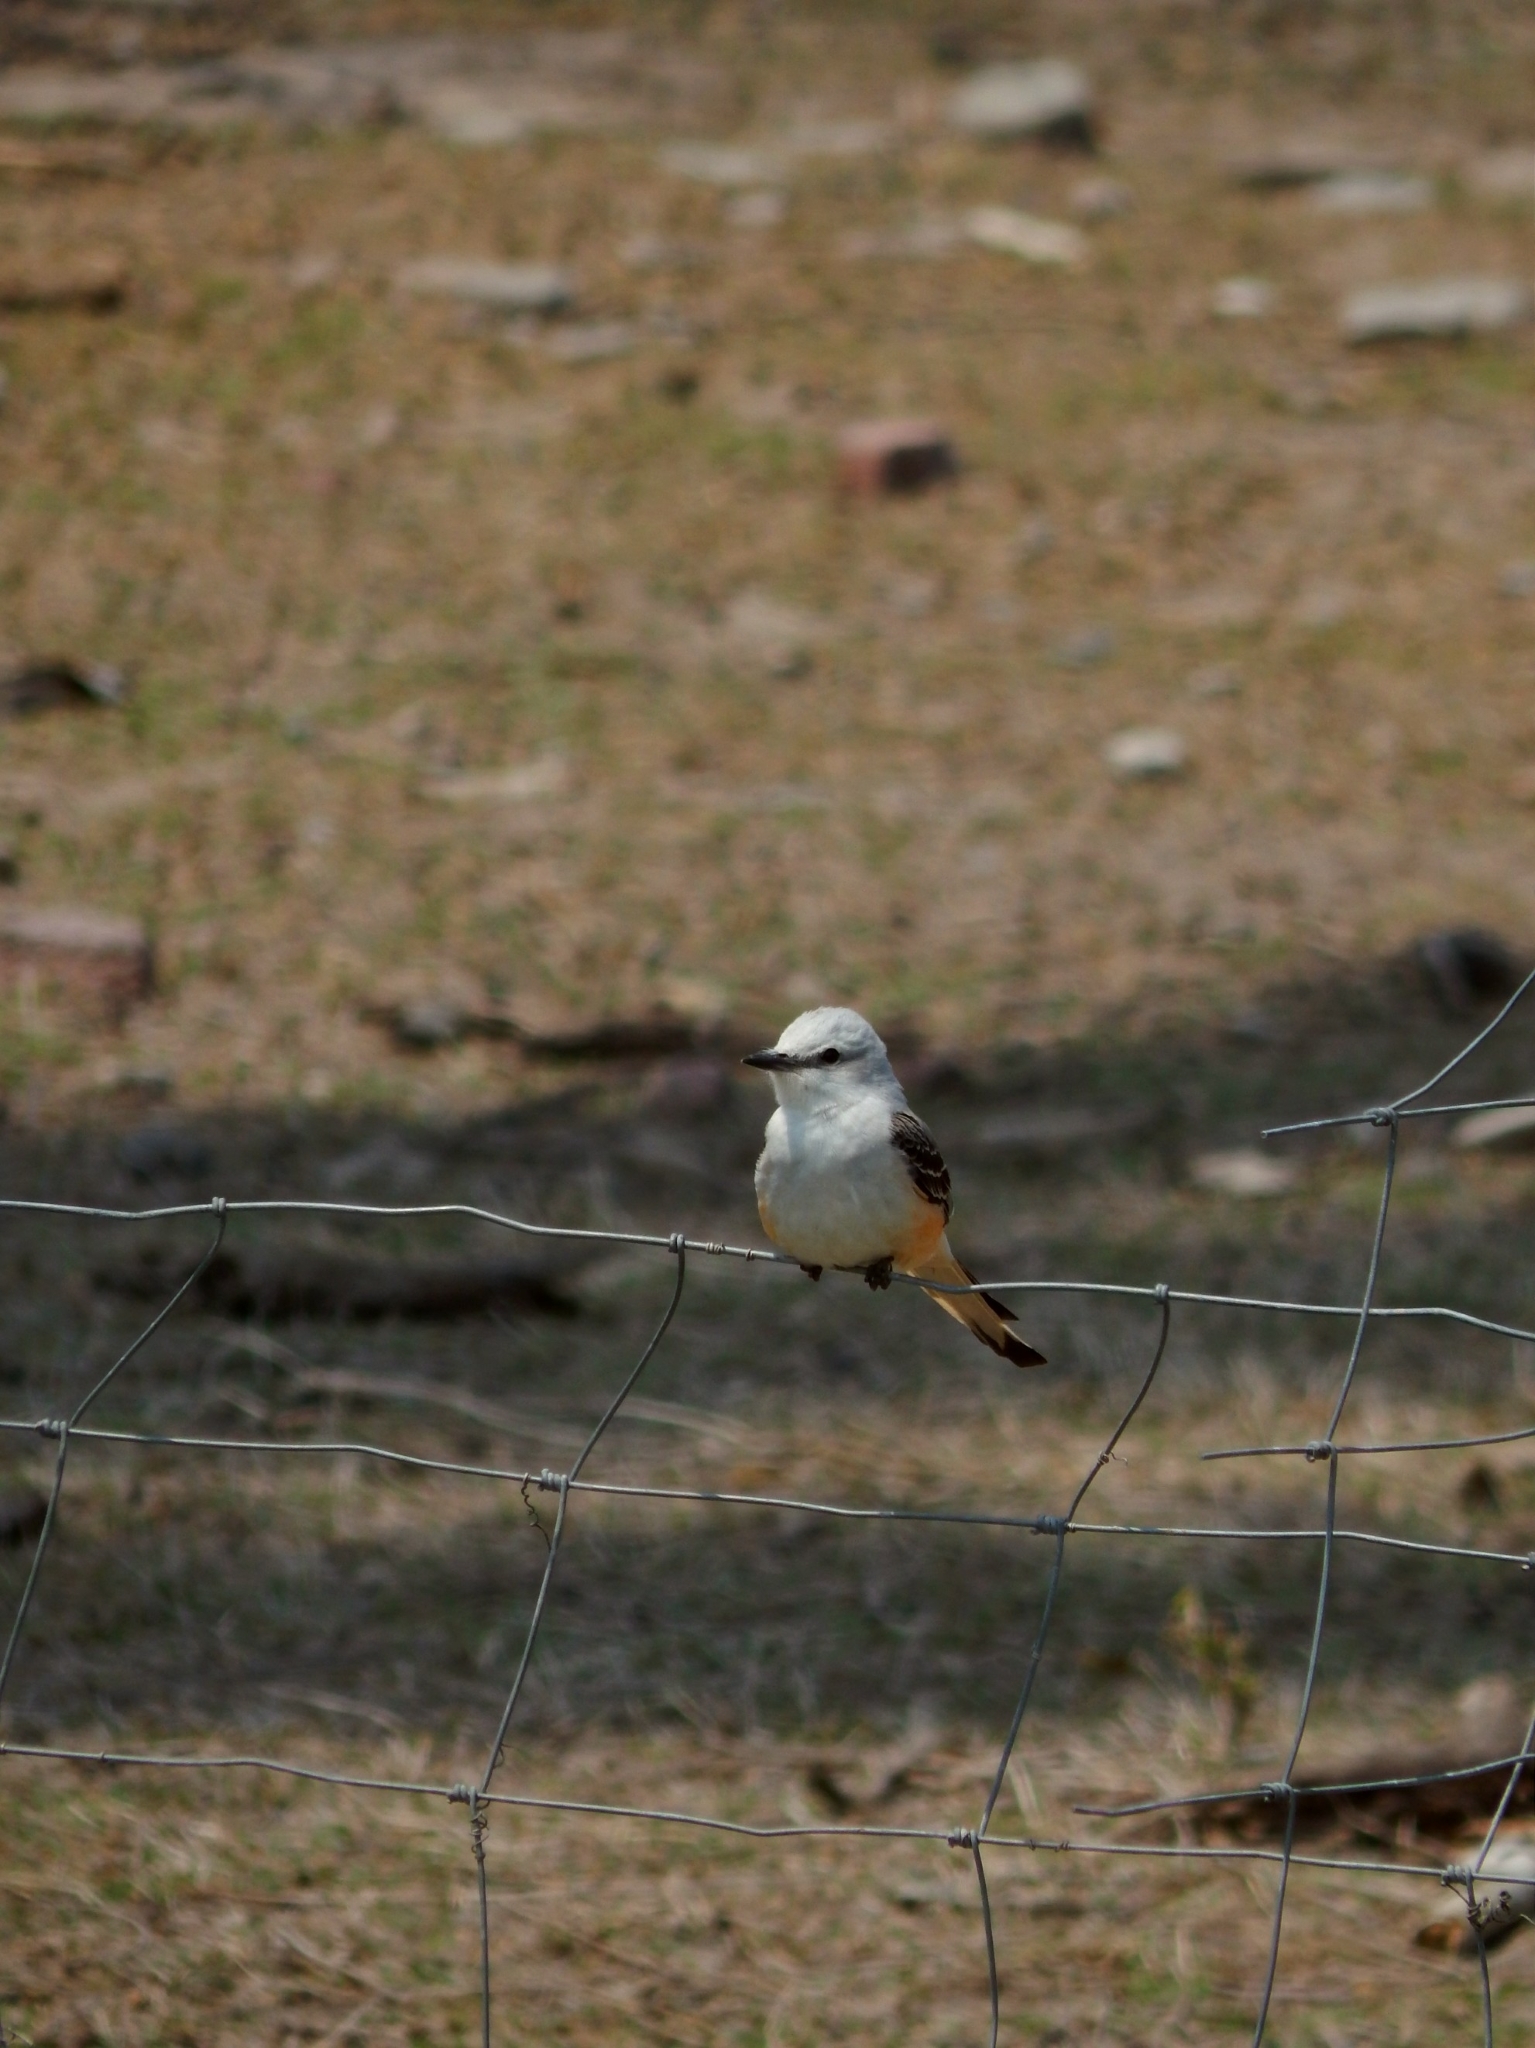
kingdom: Animalia
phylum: Chordata
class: Aves
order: Passeriformes
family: Tyrannidae
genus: Tyrannus
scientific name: Tyrannus forficatus
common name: Scissor-tailed flycatcher
